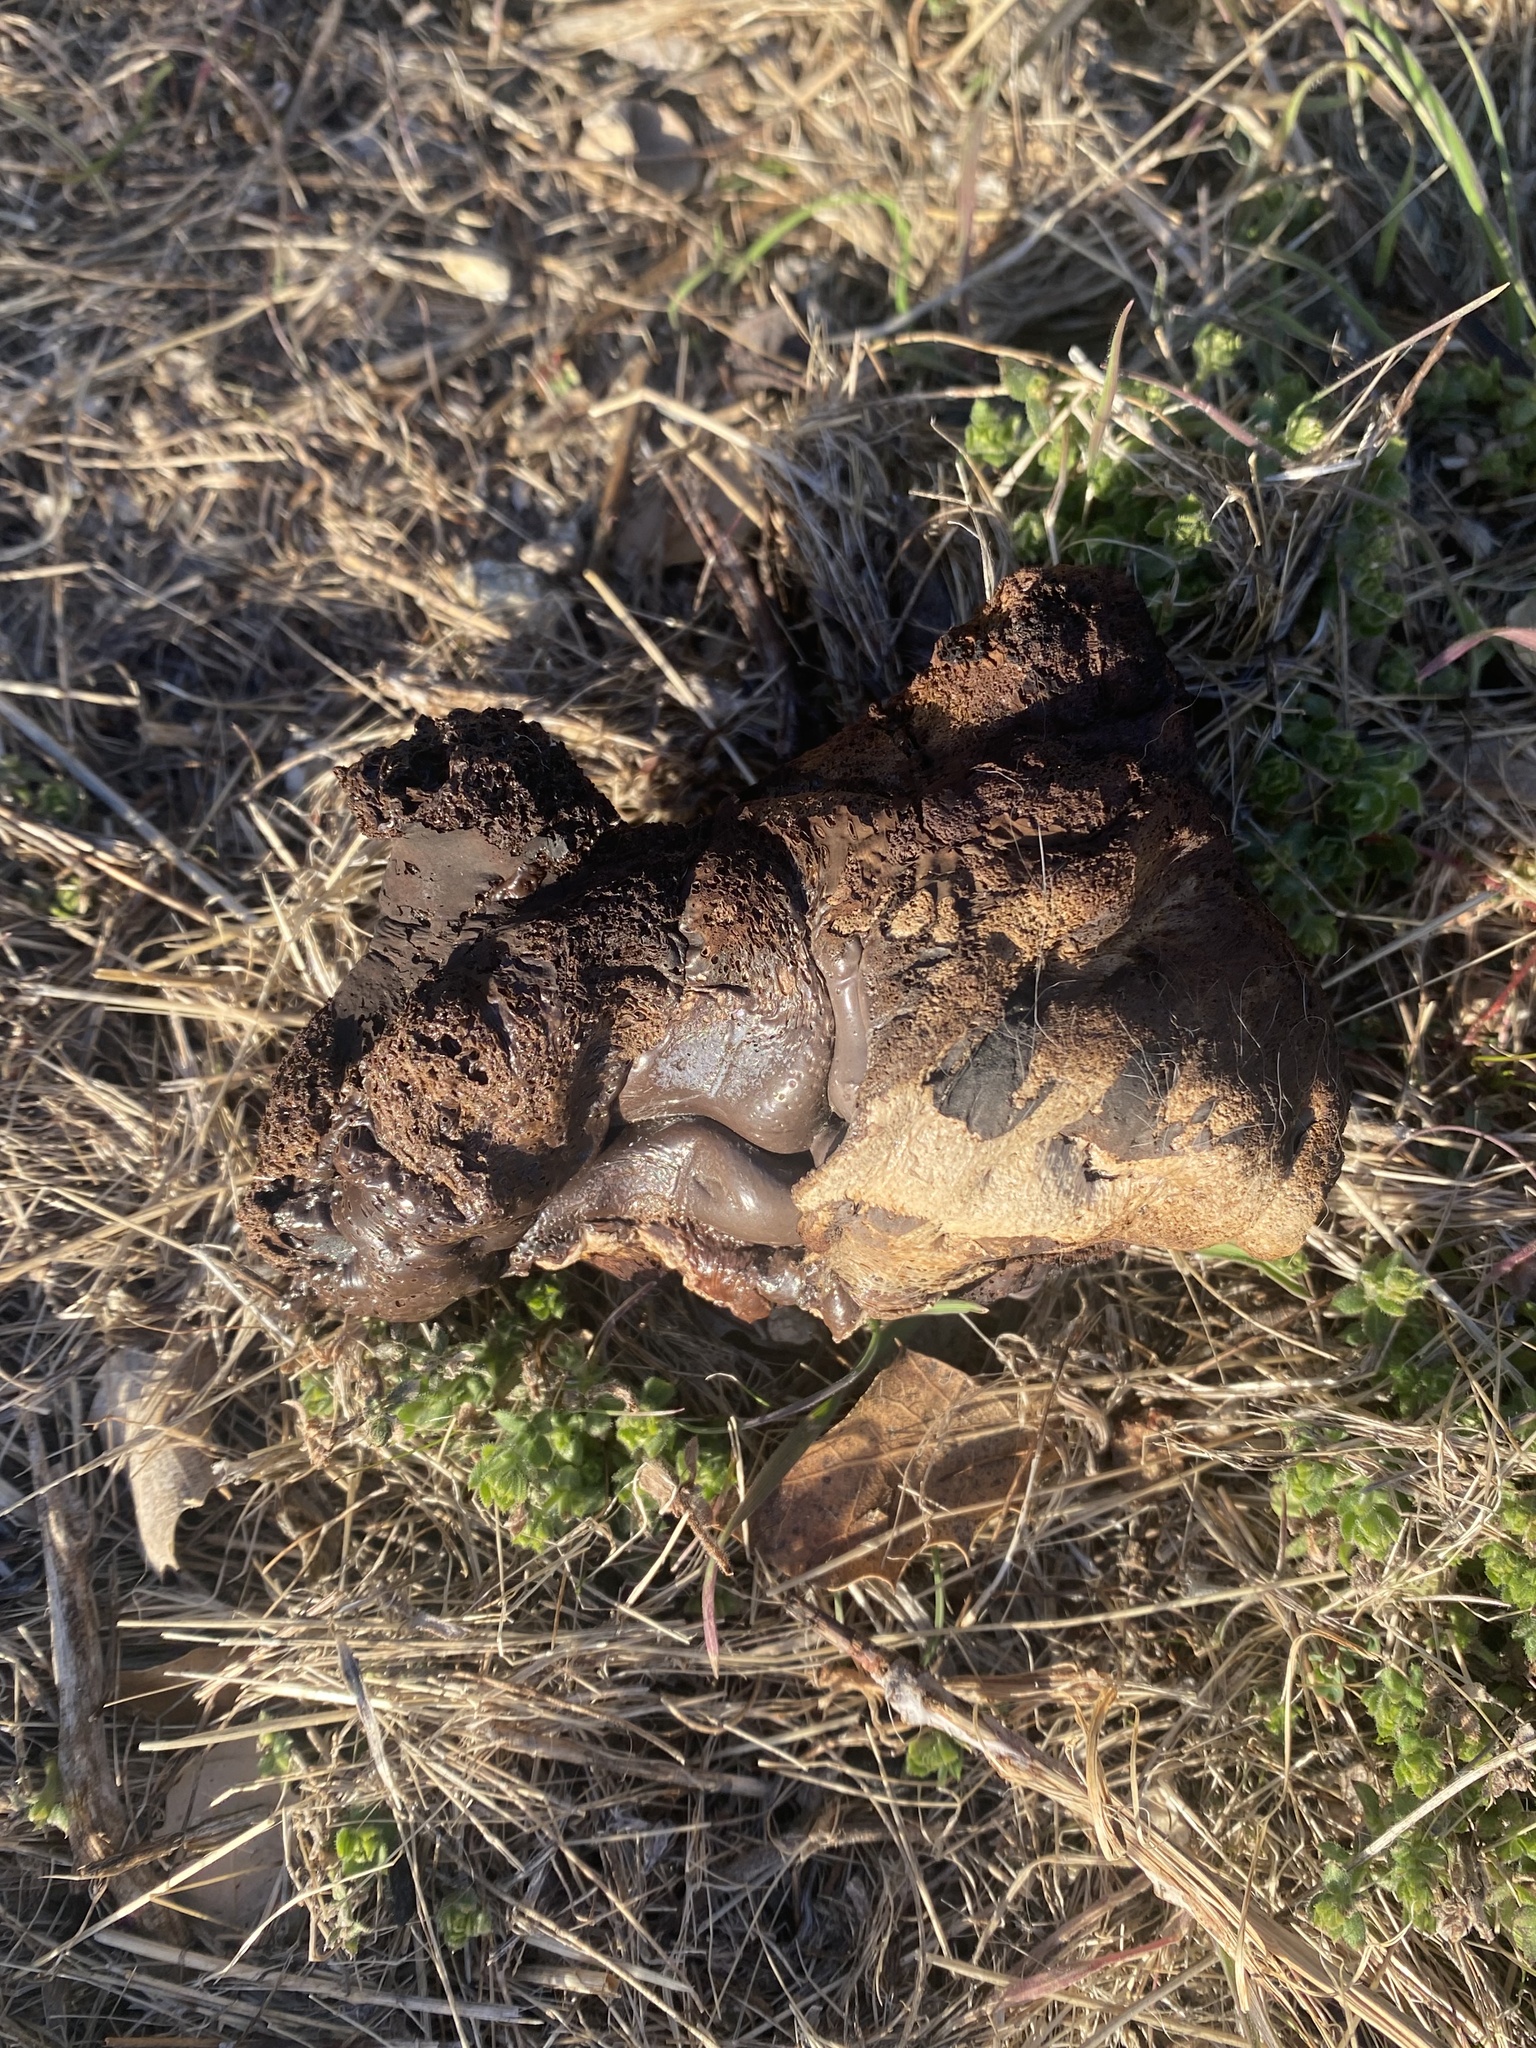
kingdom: Fungi
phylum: Basidiomycota
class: Agaricomycetes
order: Boletales
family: Sclerodermataceae
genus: Pisolithus
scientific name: Pisolithus tinctorius
